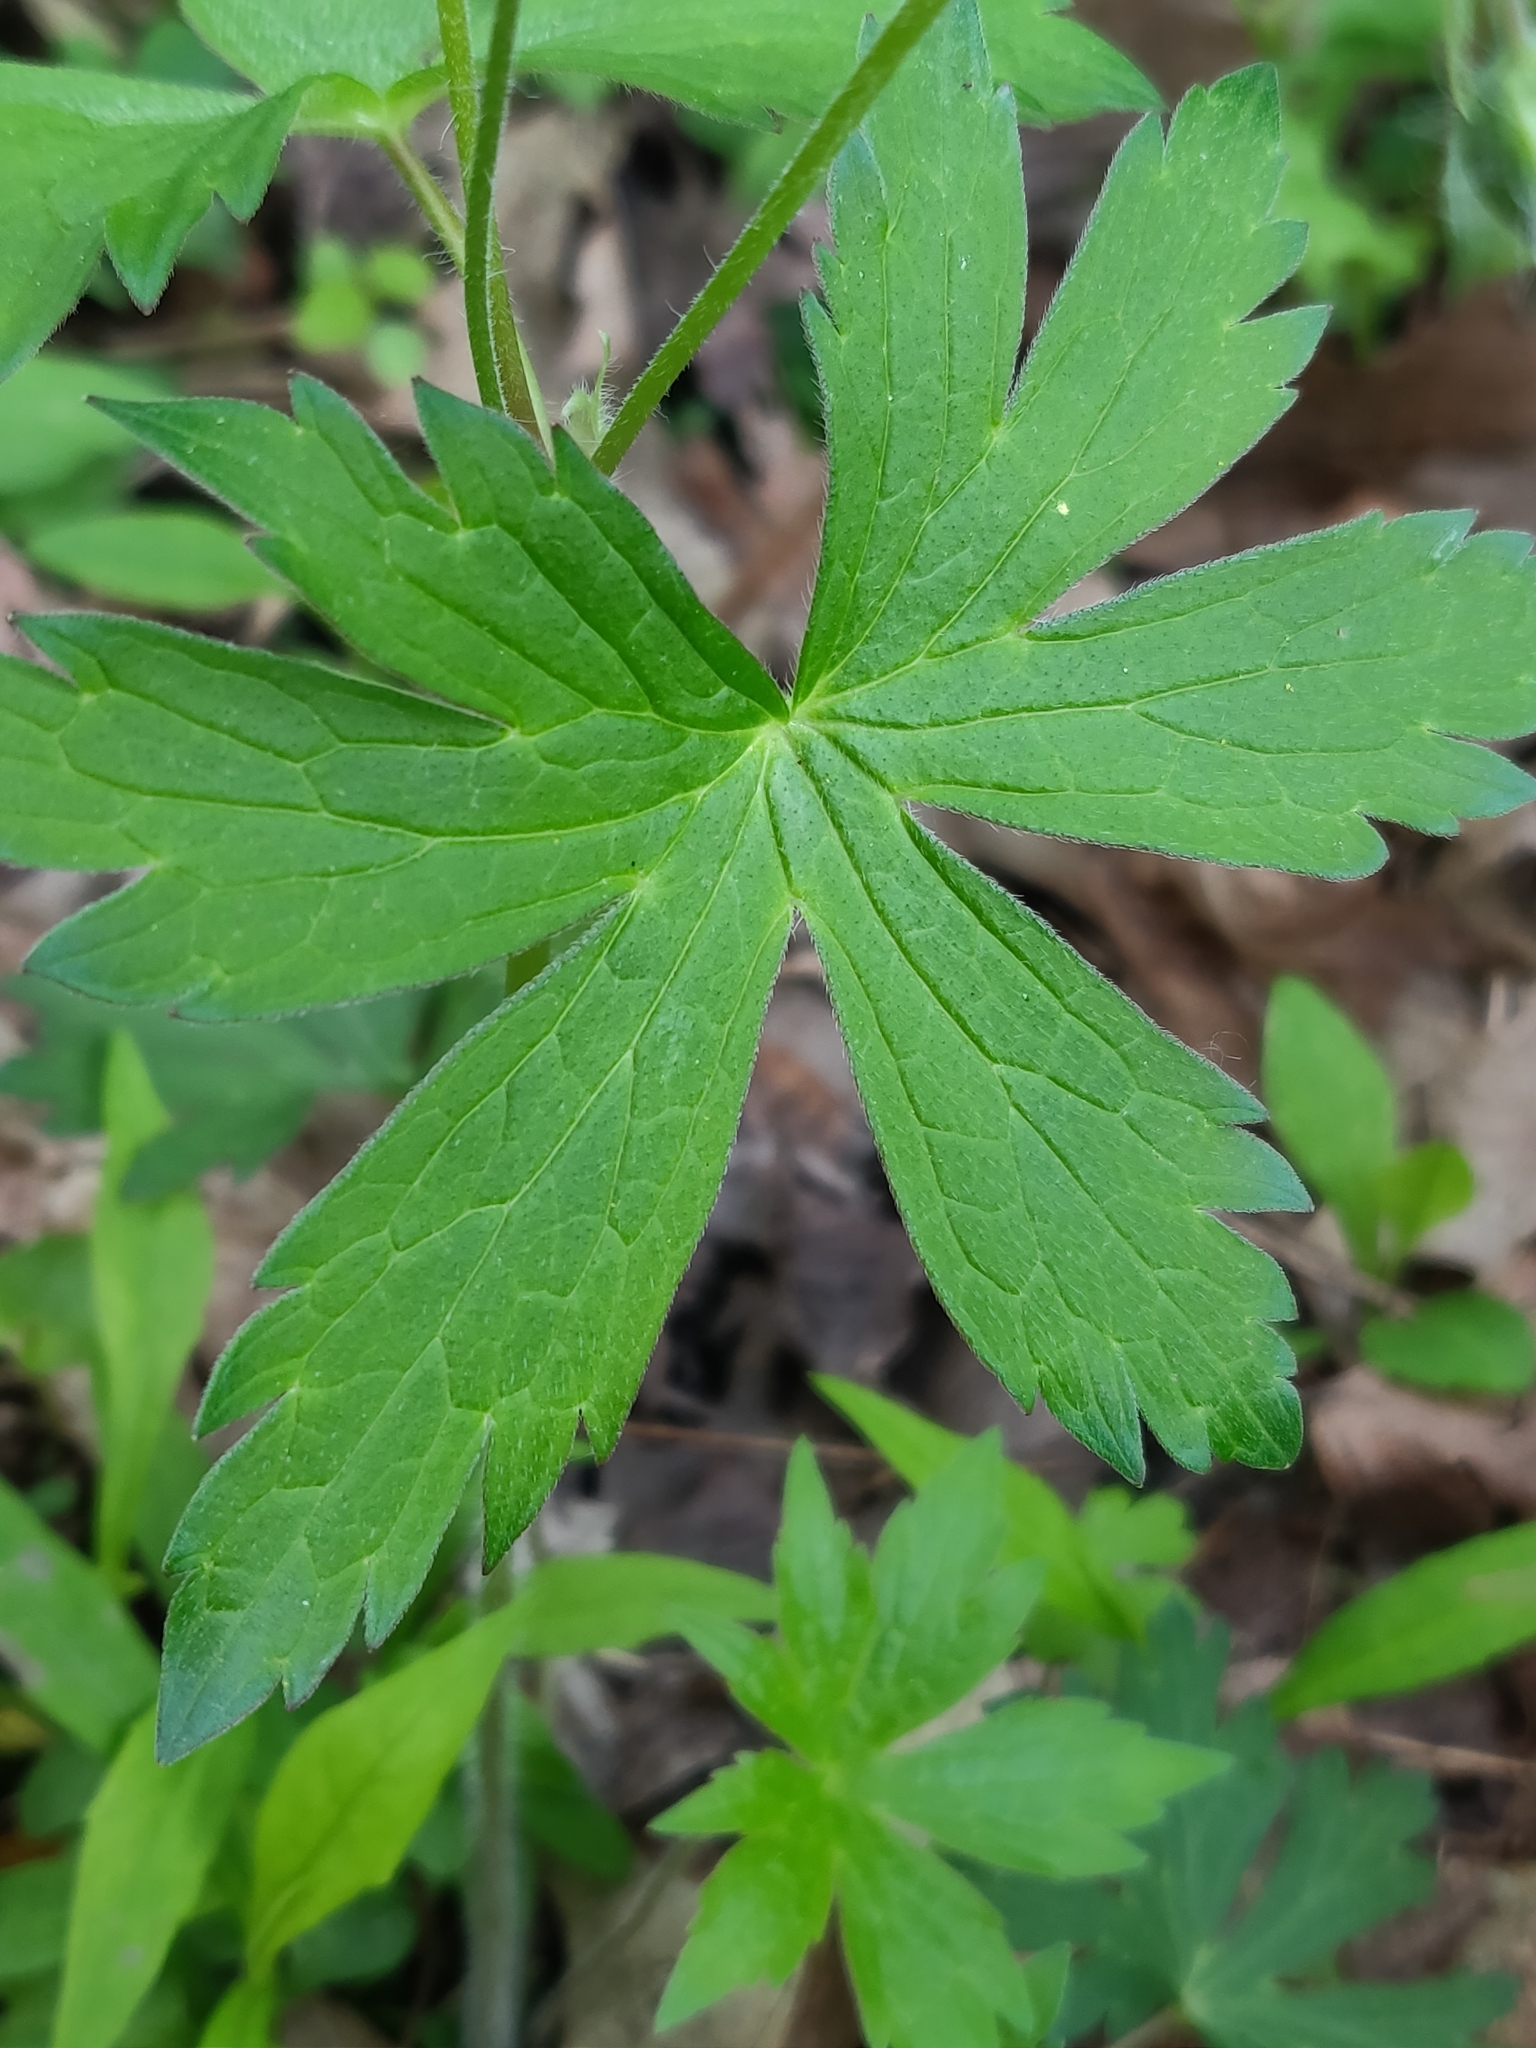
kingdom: Plantae
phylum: Tracheophyta
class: Magnoliopsida
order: Geraniales
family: Geraniaceae
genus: Geranium
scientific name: Geranium maculatum
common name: Spotted geranium
